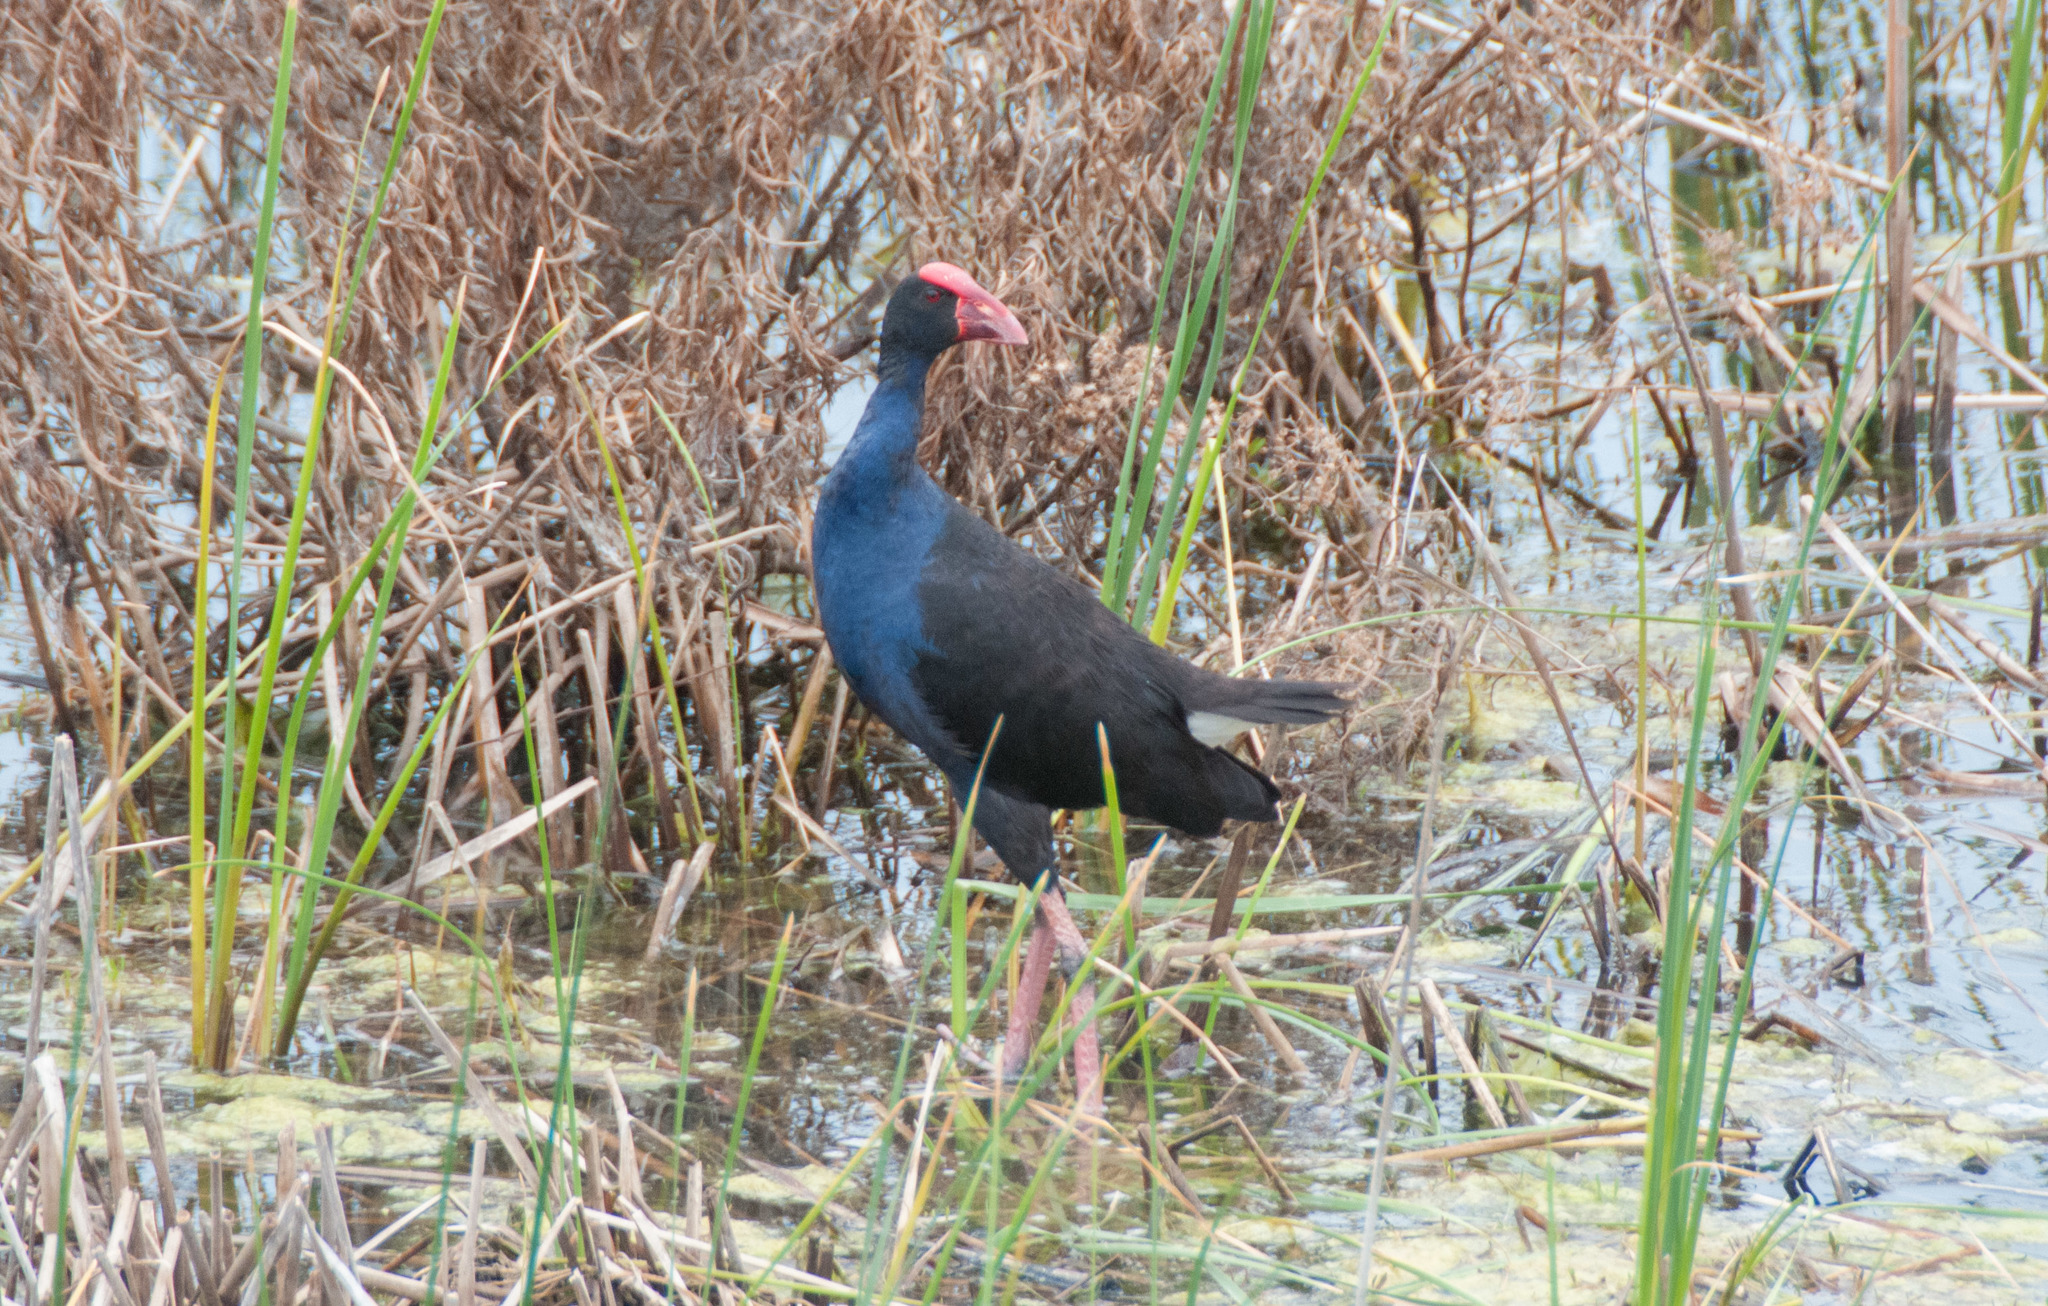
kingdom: Animalia
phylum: Chordata
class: Aves
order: Gruiformes
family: Rallidae
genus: Porphyrio
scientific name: Porphyrio melanotus
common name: Australasian swamphen
